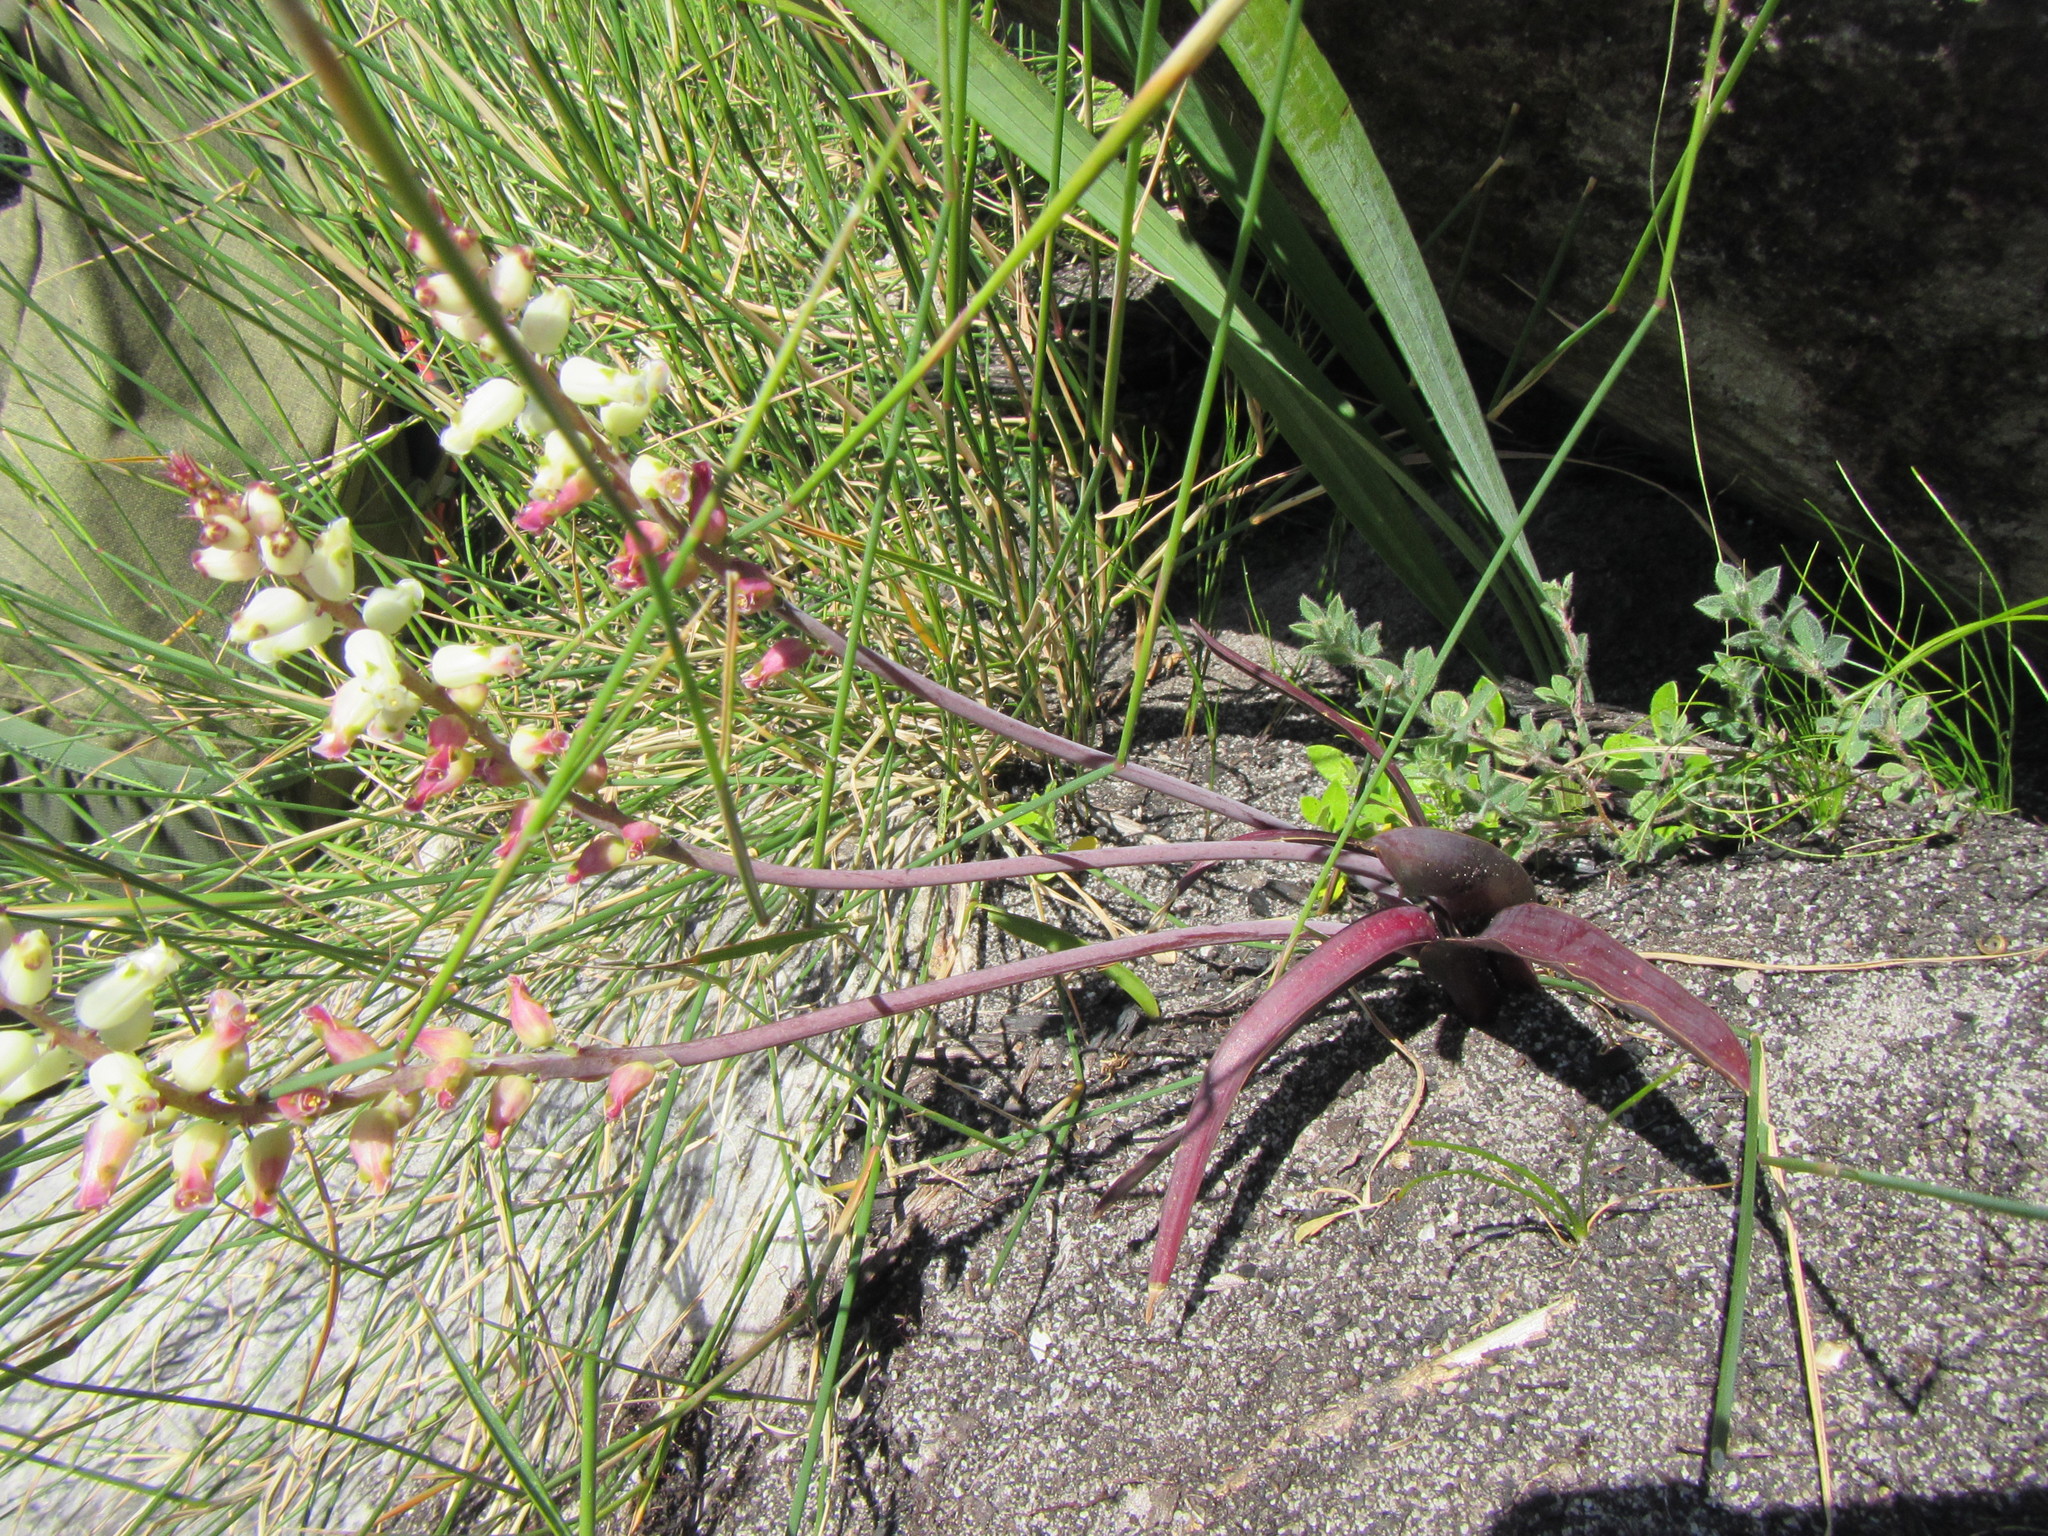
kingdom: Plantae
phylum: Tracheophyta
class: Liliopsida
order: Asparagales
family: Asparagaceae
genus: Lachenalia
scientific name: Lachenalia peersii
